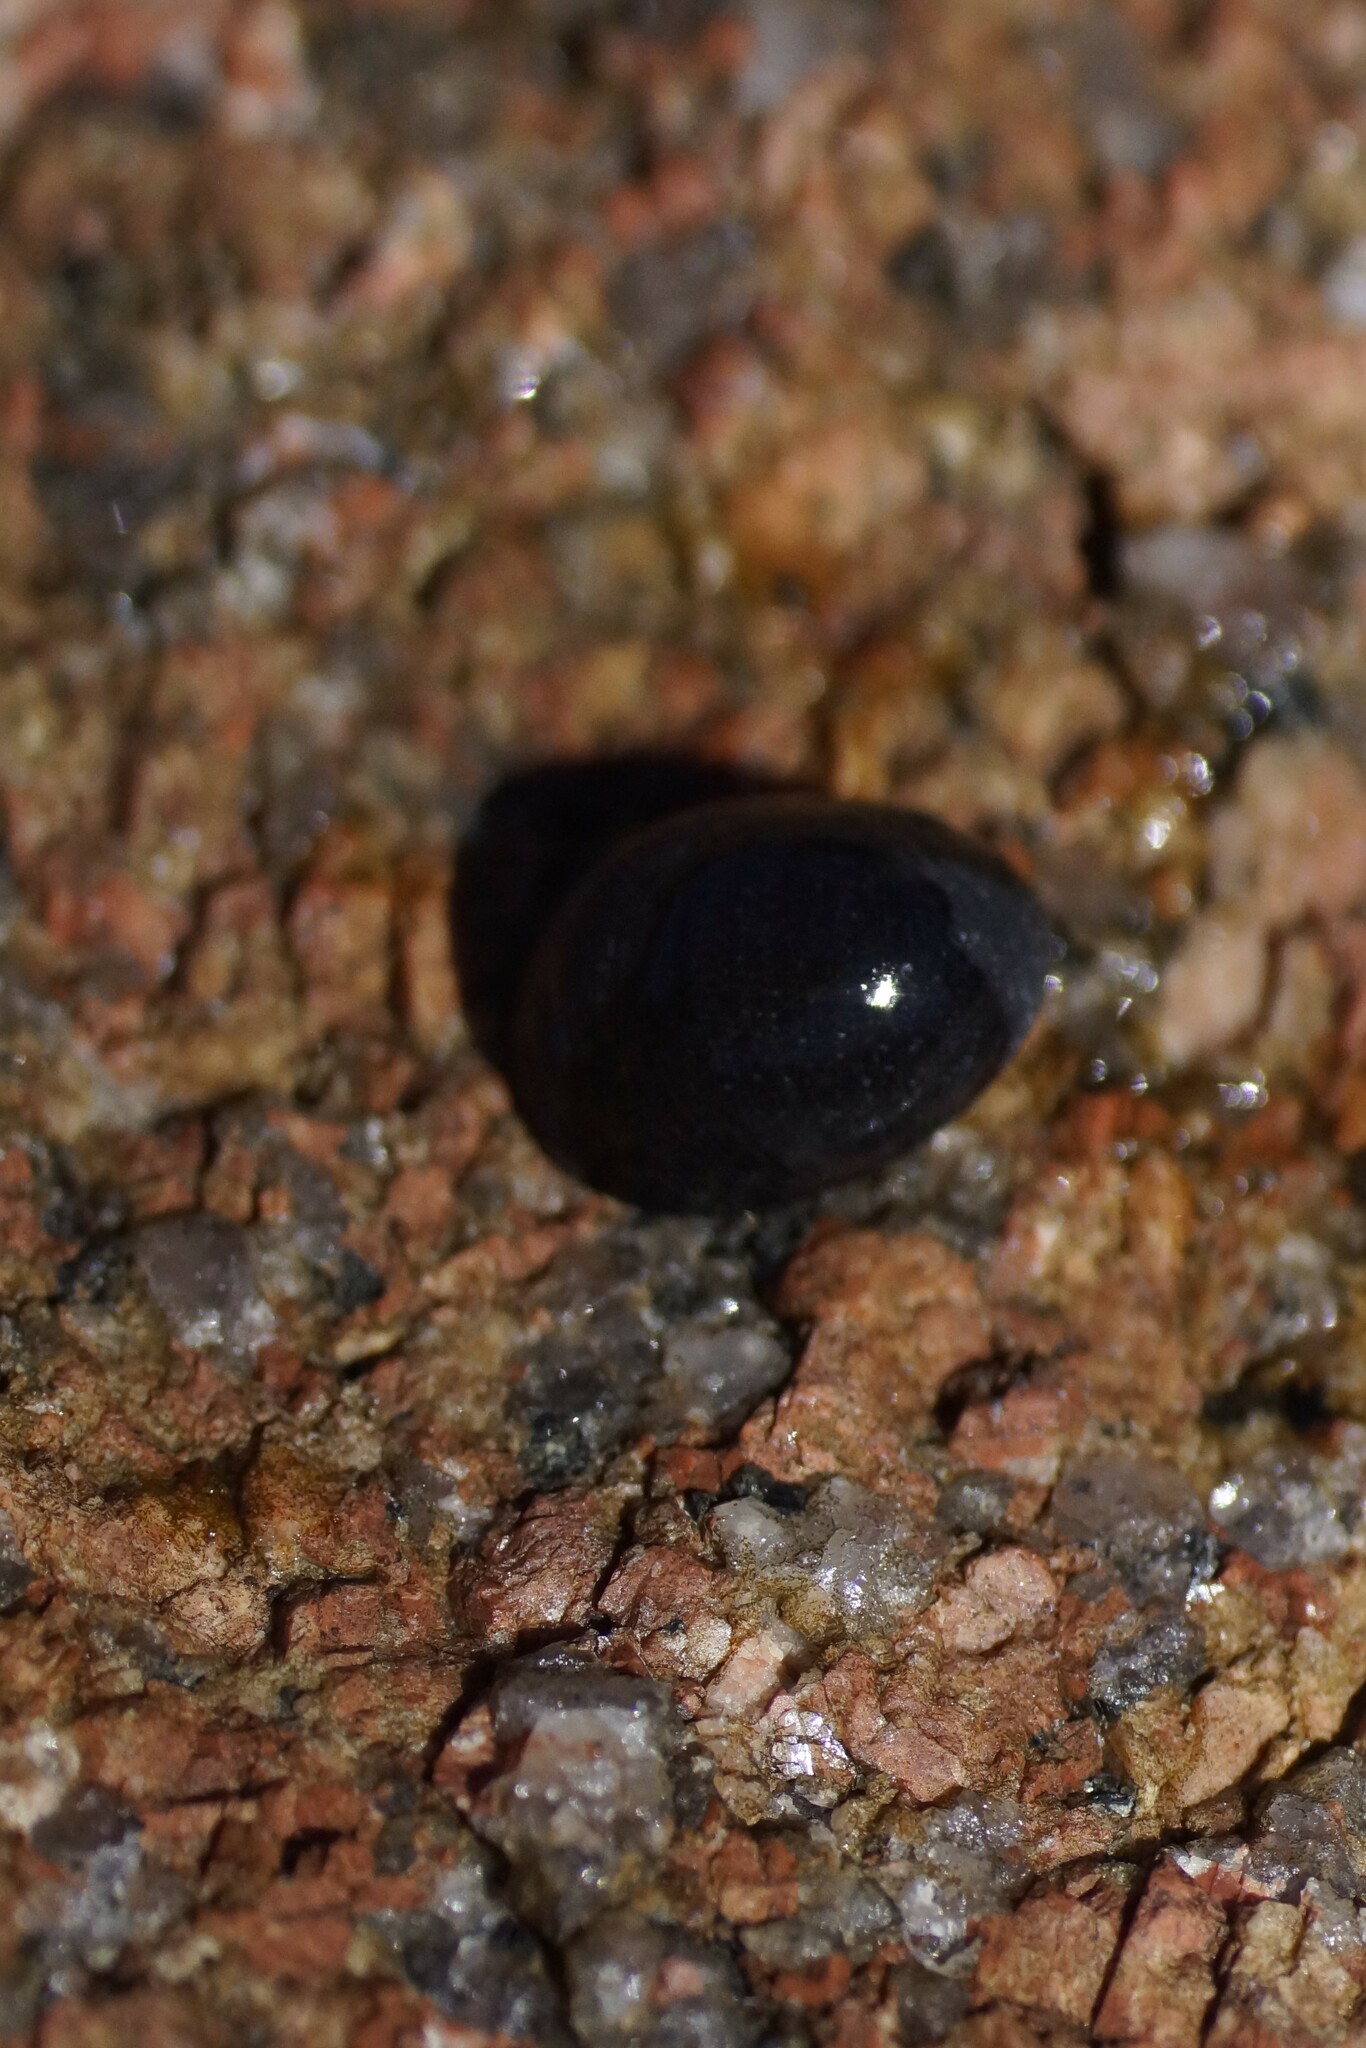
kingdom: Animalia
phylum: Mollusca
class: Gastropoda
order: Cycloneritida
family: Neritidae
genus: Nerita
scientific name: Nerita melanotragus
